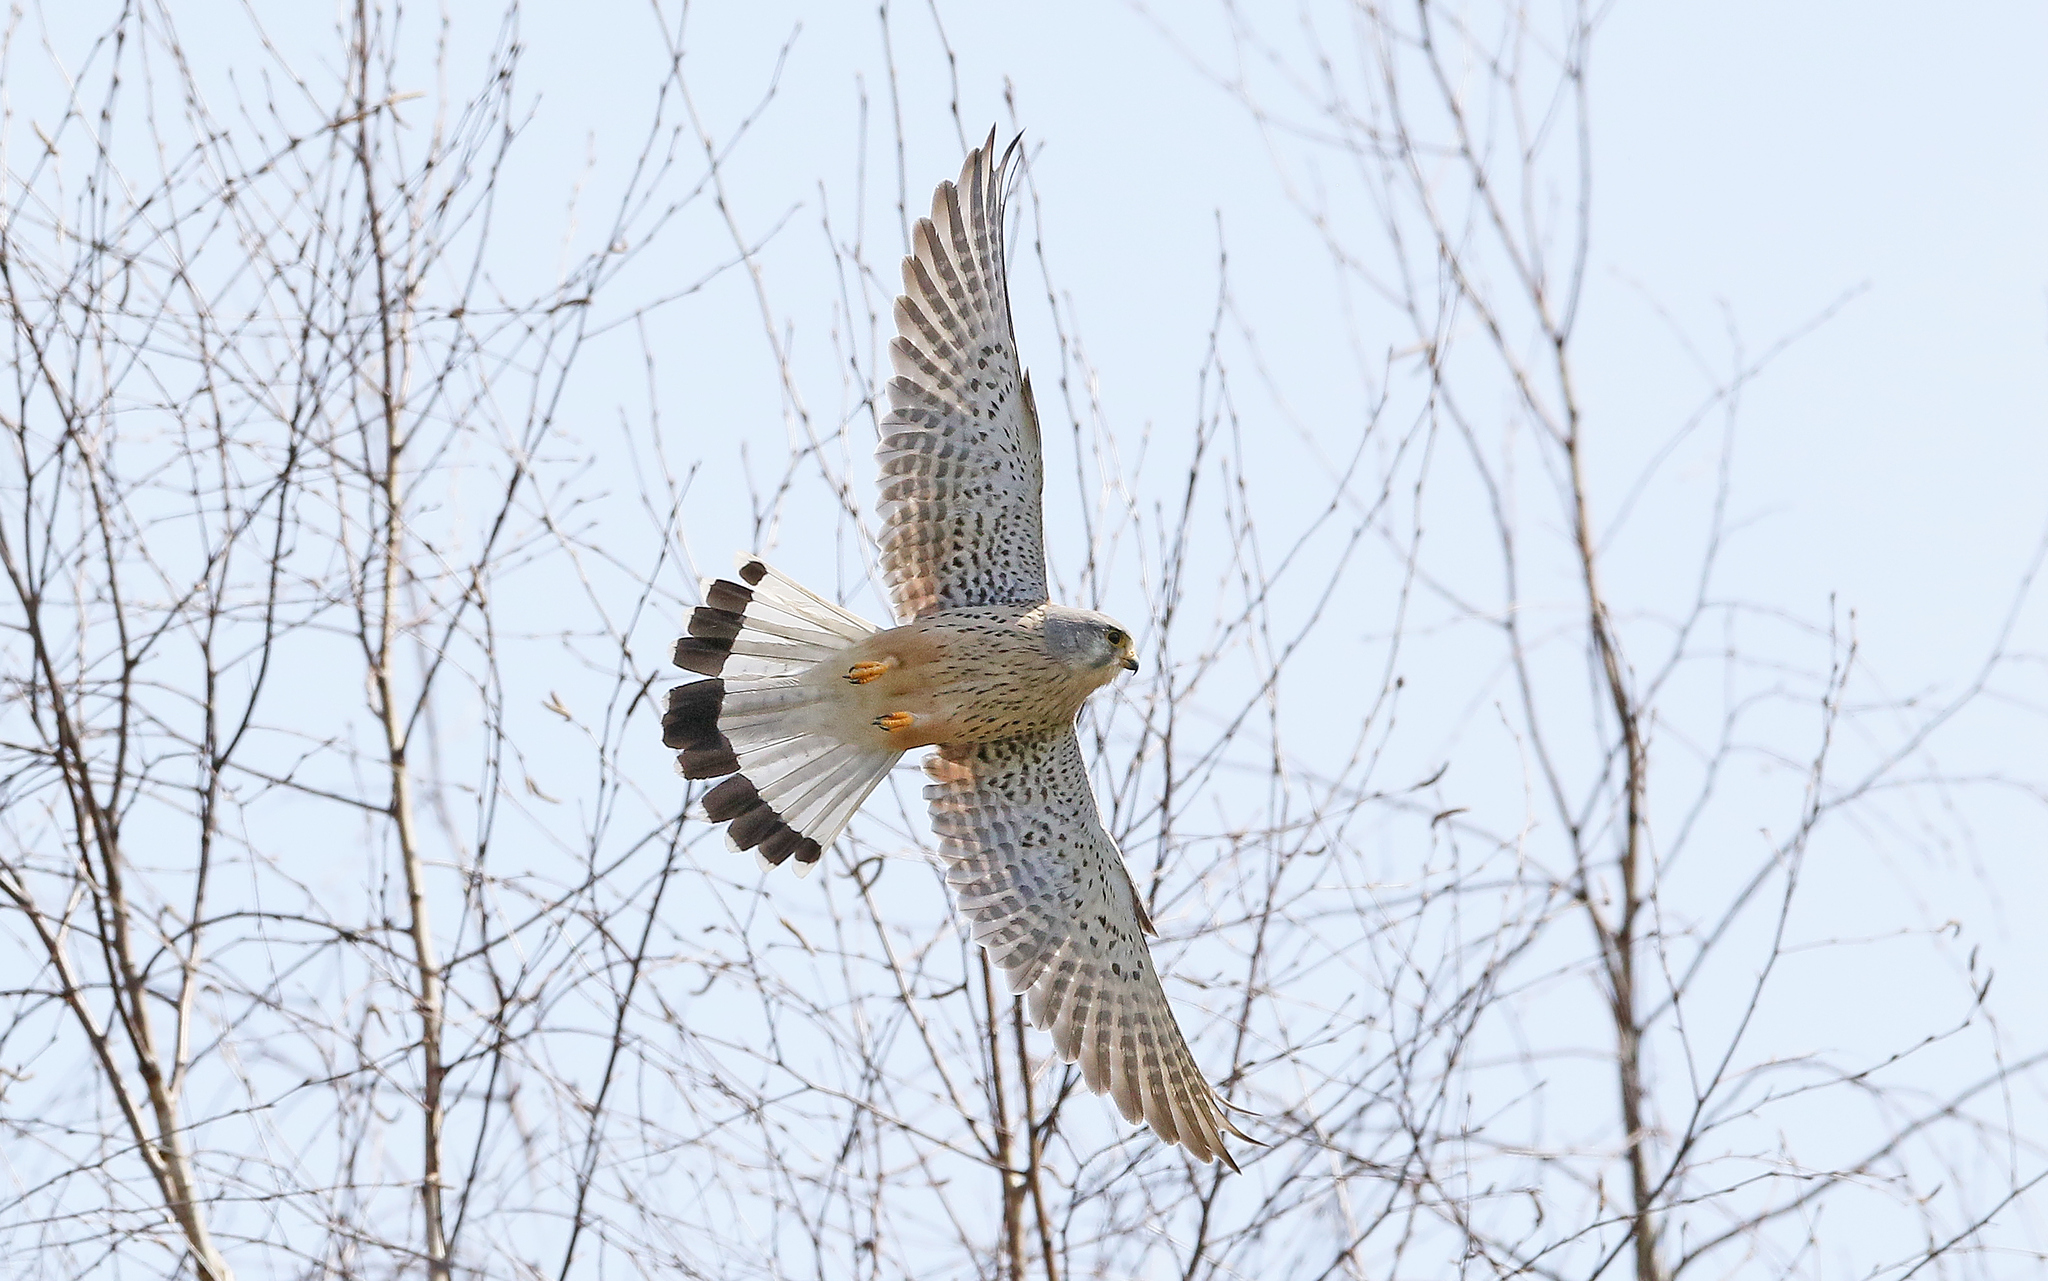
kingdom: Animalia
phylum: Chordata
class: Aves
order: Falconiformes
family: Falconidae
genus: Falco
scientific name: Falco tinnunculus
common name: Common kestrel
